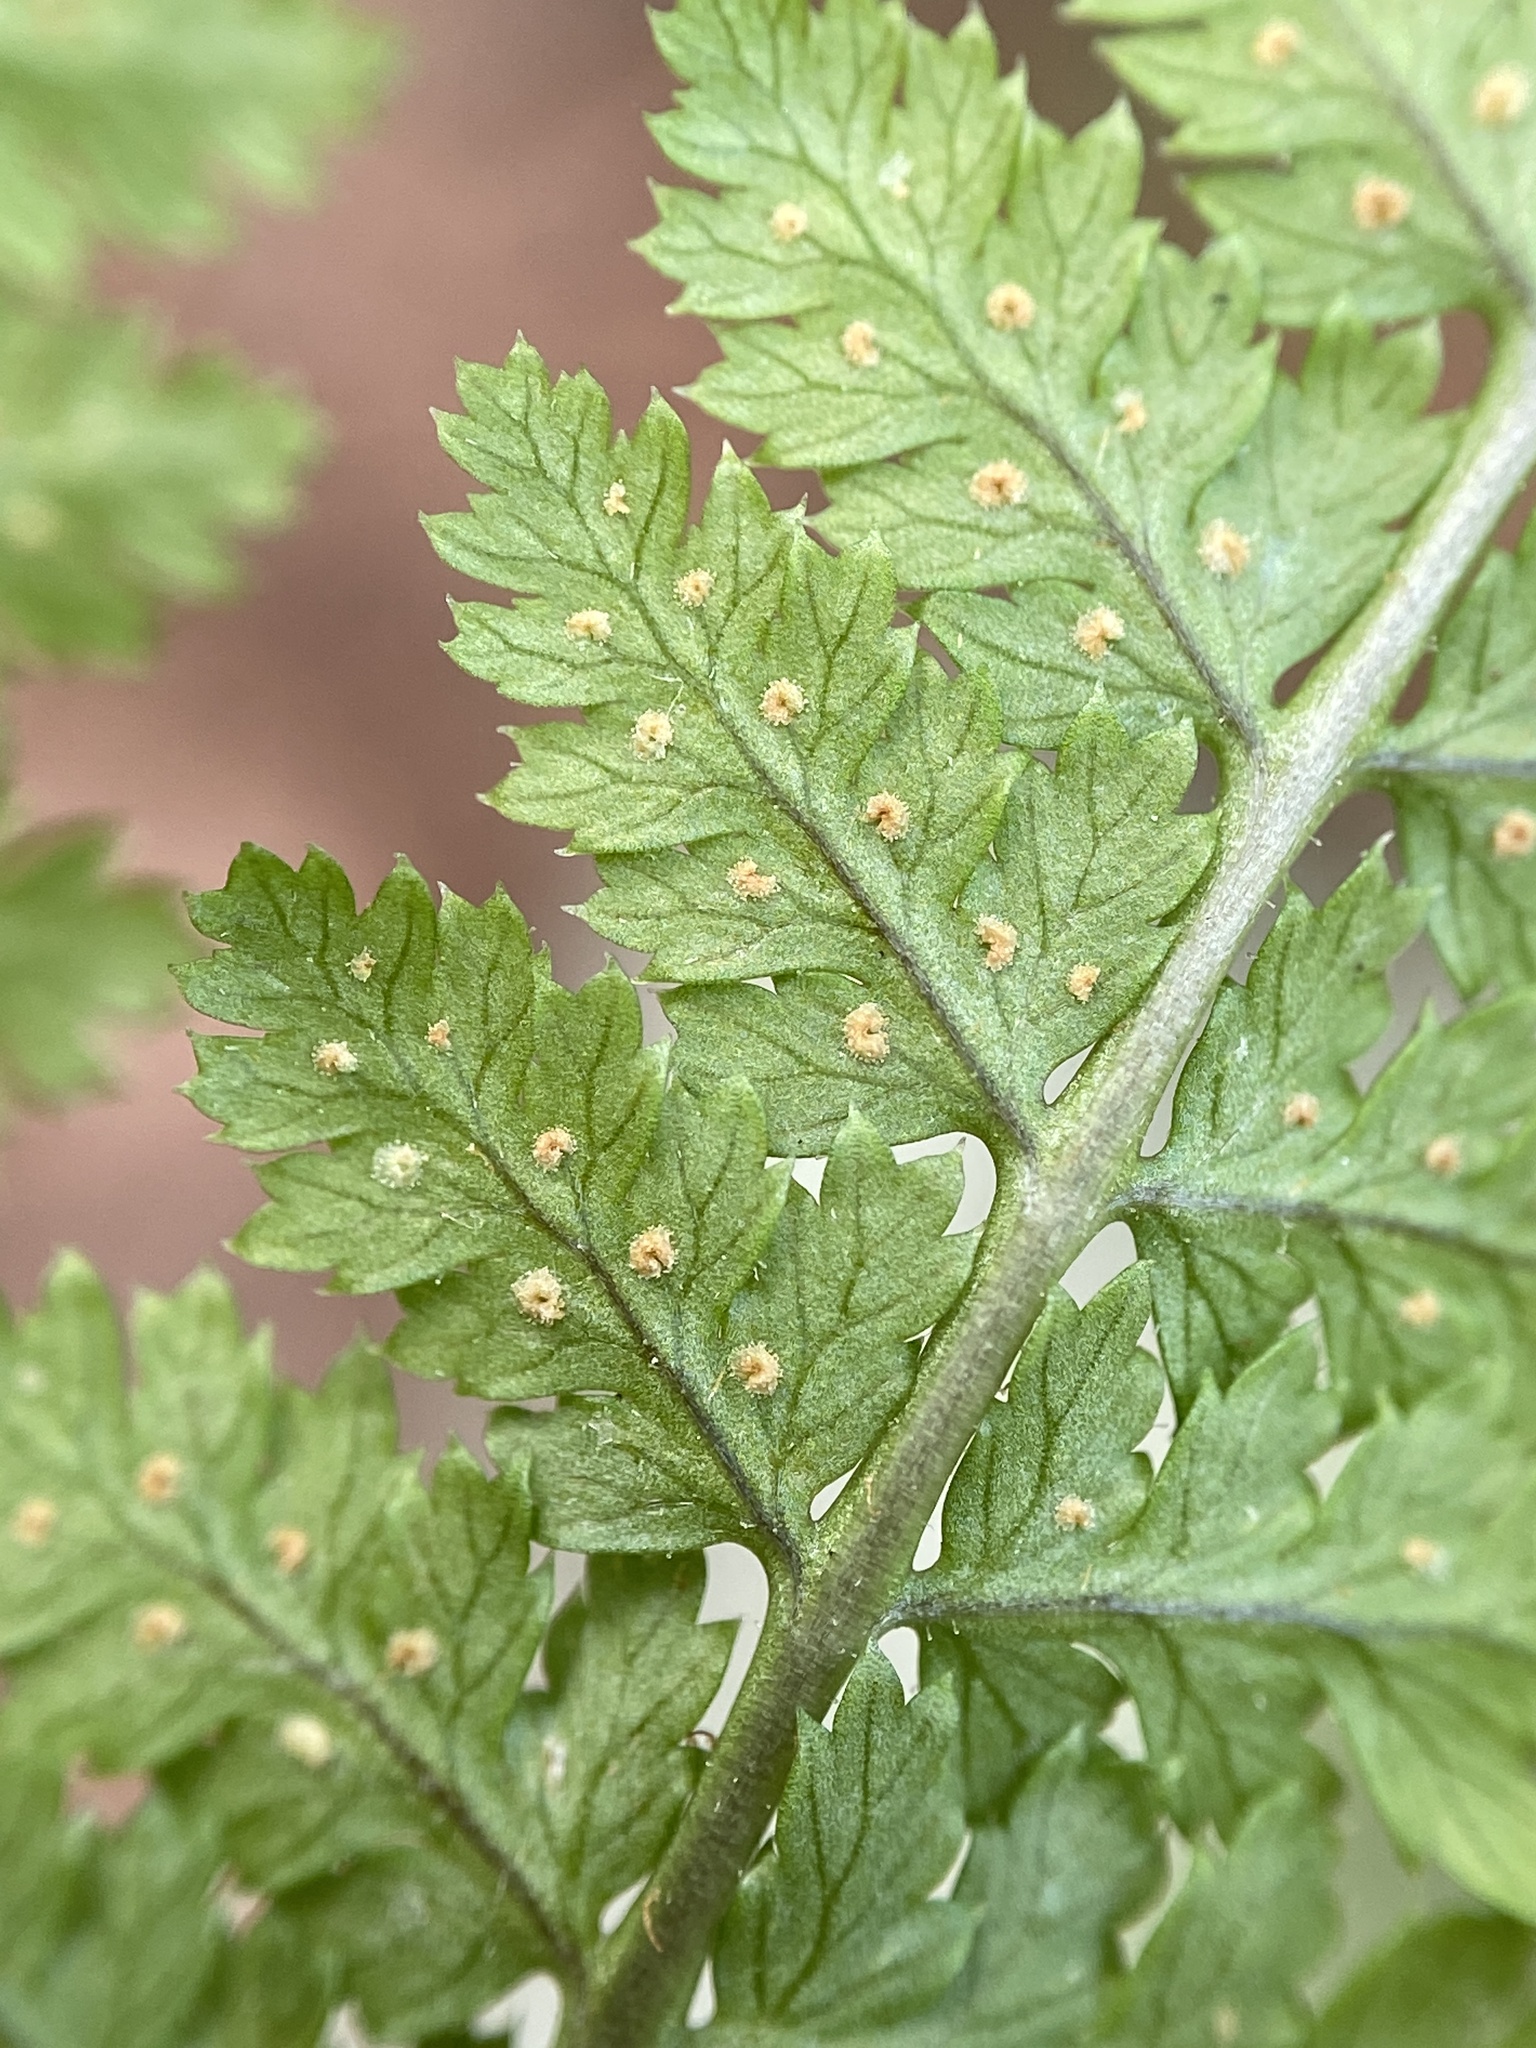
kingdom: Plantae
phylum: Tracheophyta
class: Polypodiopsida
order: Polypodiales
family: Dryopteridaceae
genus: Dryopteris
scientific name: Dryopteris intermedia
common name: Evergreen wood fern
